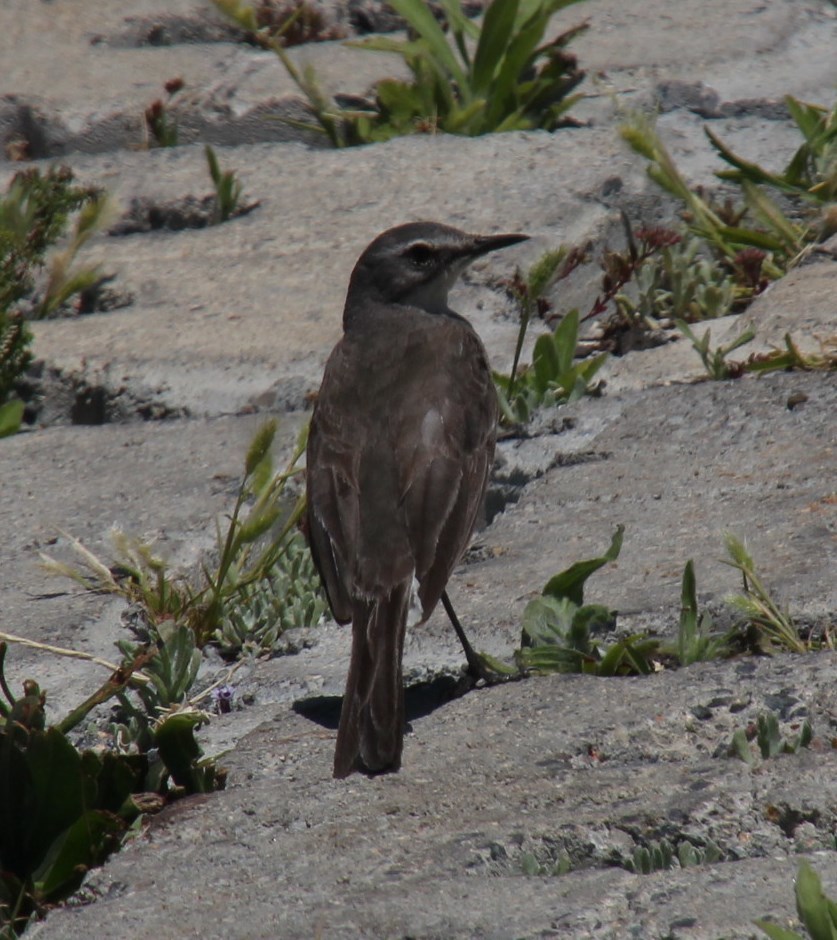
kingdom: Animalia
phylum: Chordata
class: Aves
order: Passeriformes
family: Motacillidae
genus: Motacilla
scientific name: Motacilla capensis
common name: Cape wagtail
